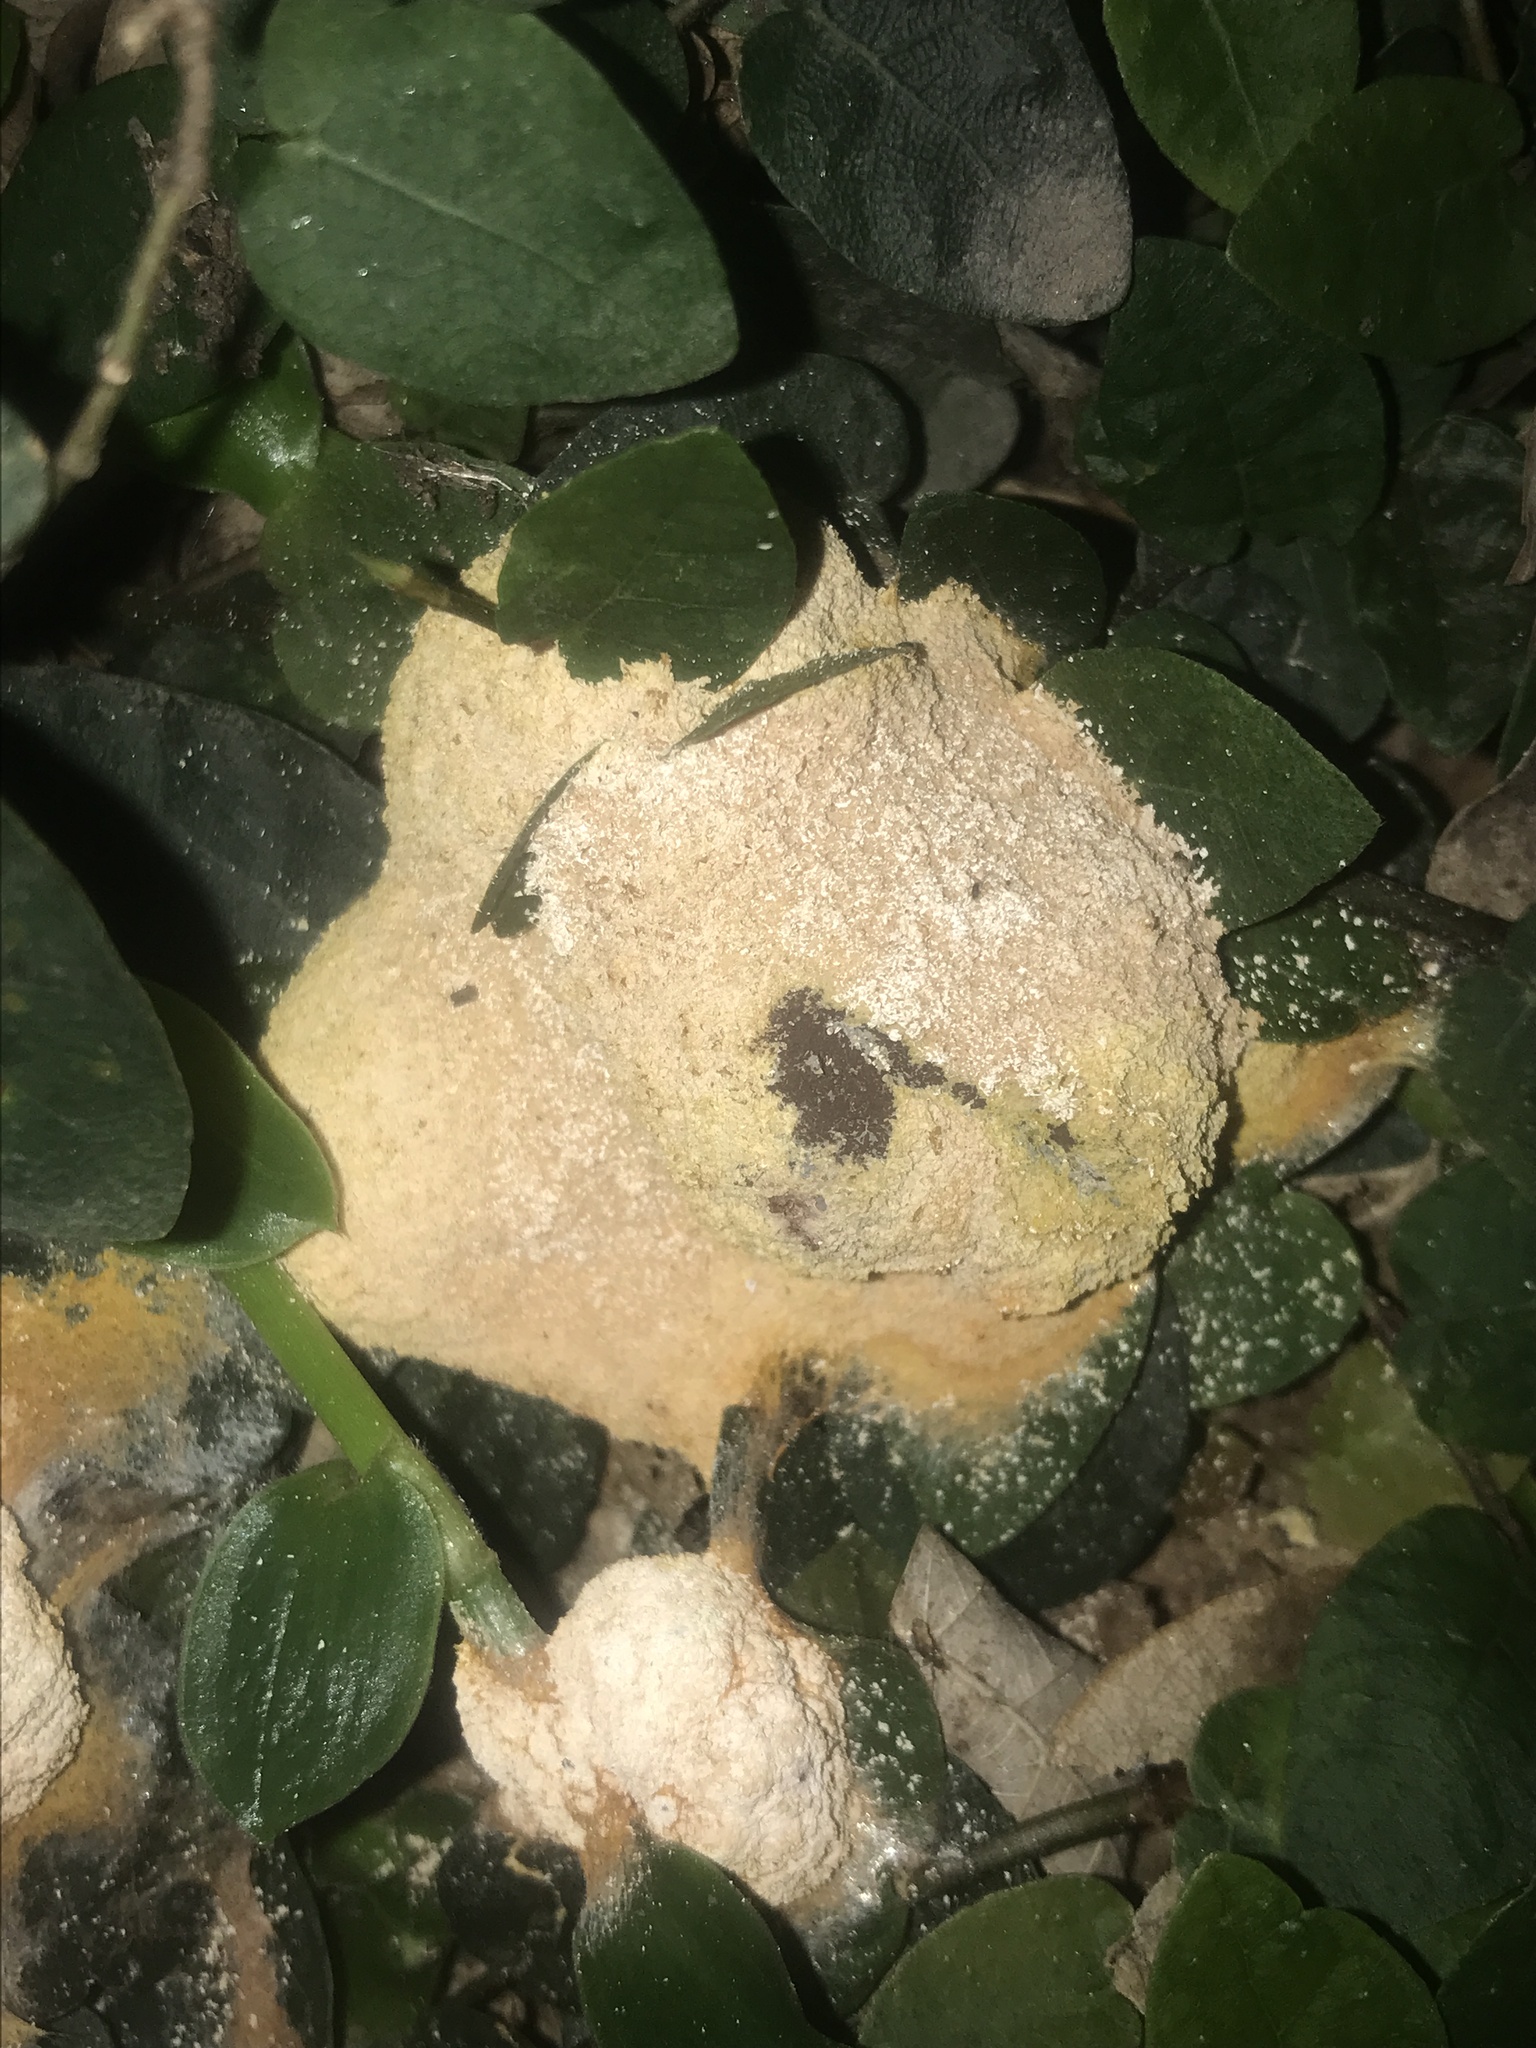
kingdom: Protozoa
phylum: Mycetozoa
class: Myxomycetes
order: Physarales
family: Physaraceae
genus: Fuligo
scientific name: Fuligo septica
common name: Dog vomit slime mold
